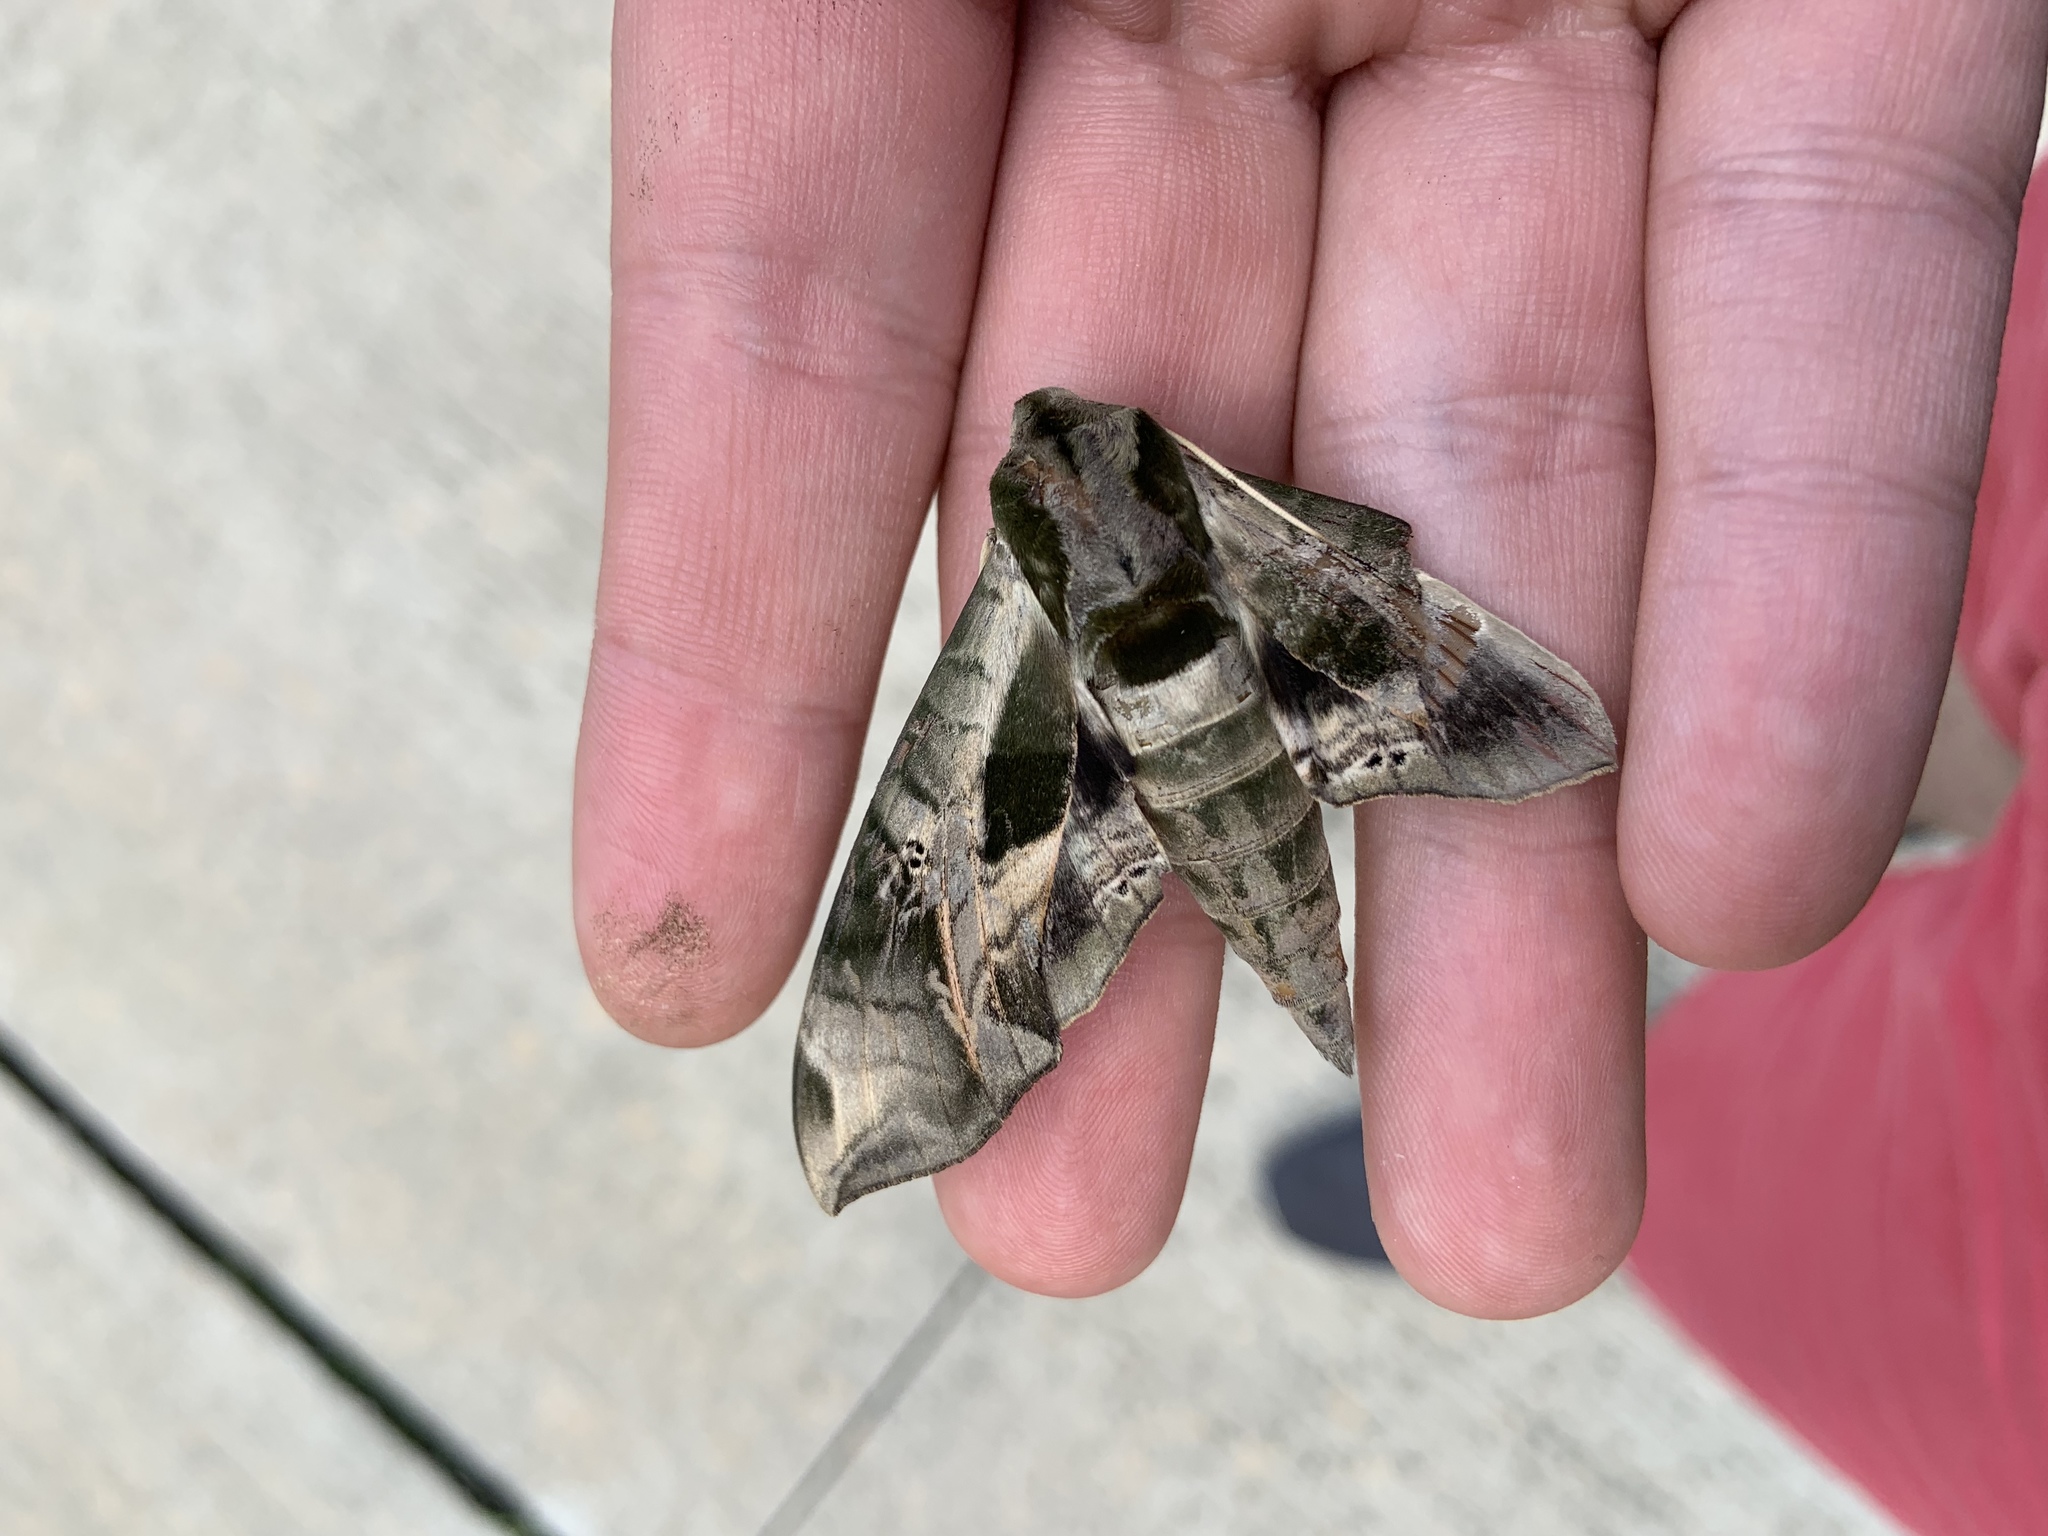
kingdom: Animalia
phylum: Arthropoda
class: Insecta
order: Lepidoptera
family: Sphingidae
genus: Eumorpha
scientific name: Eumorpha pandorus
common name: Pandora sphinx
